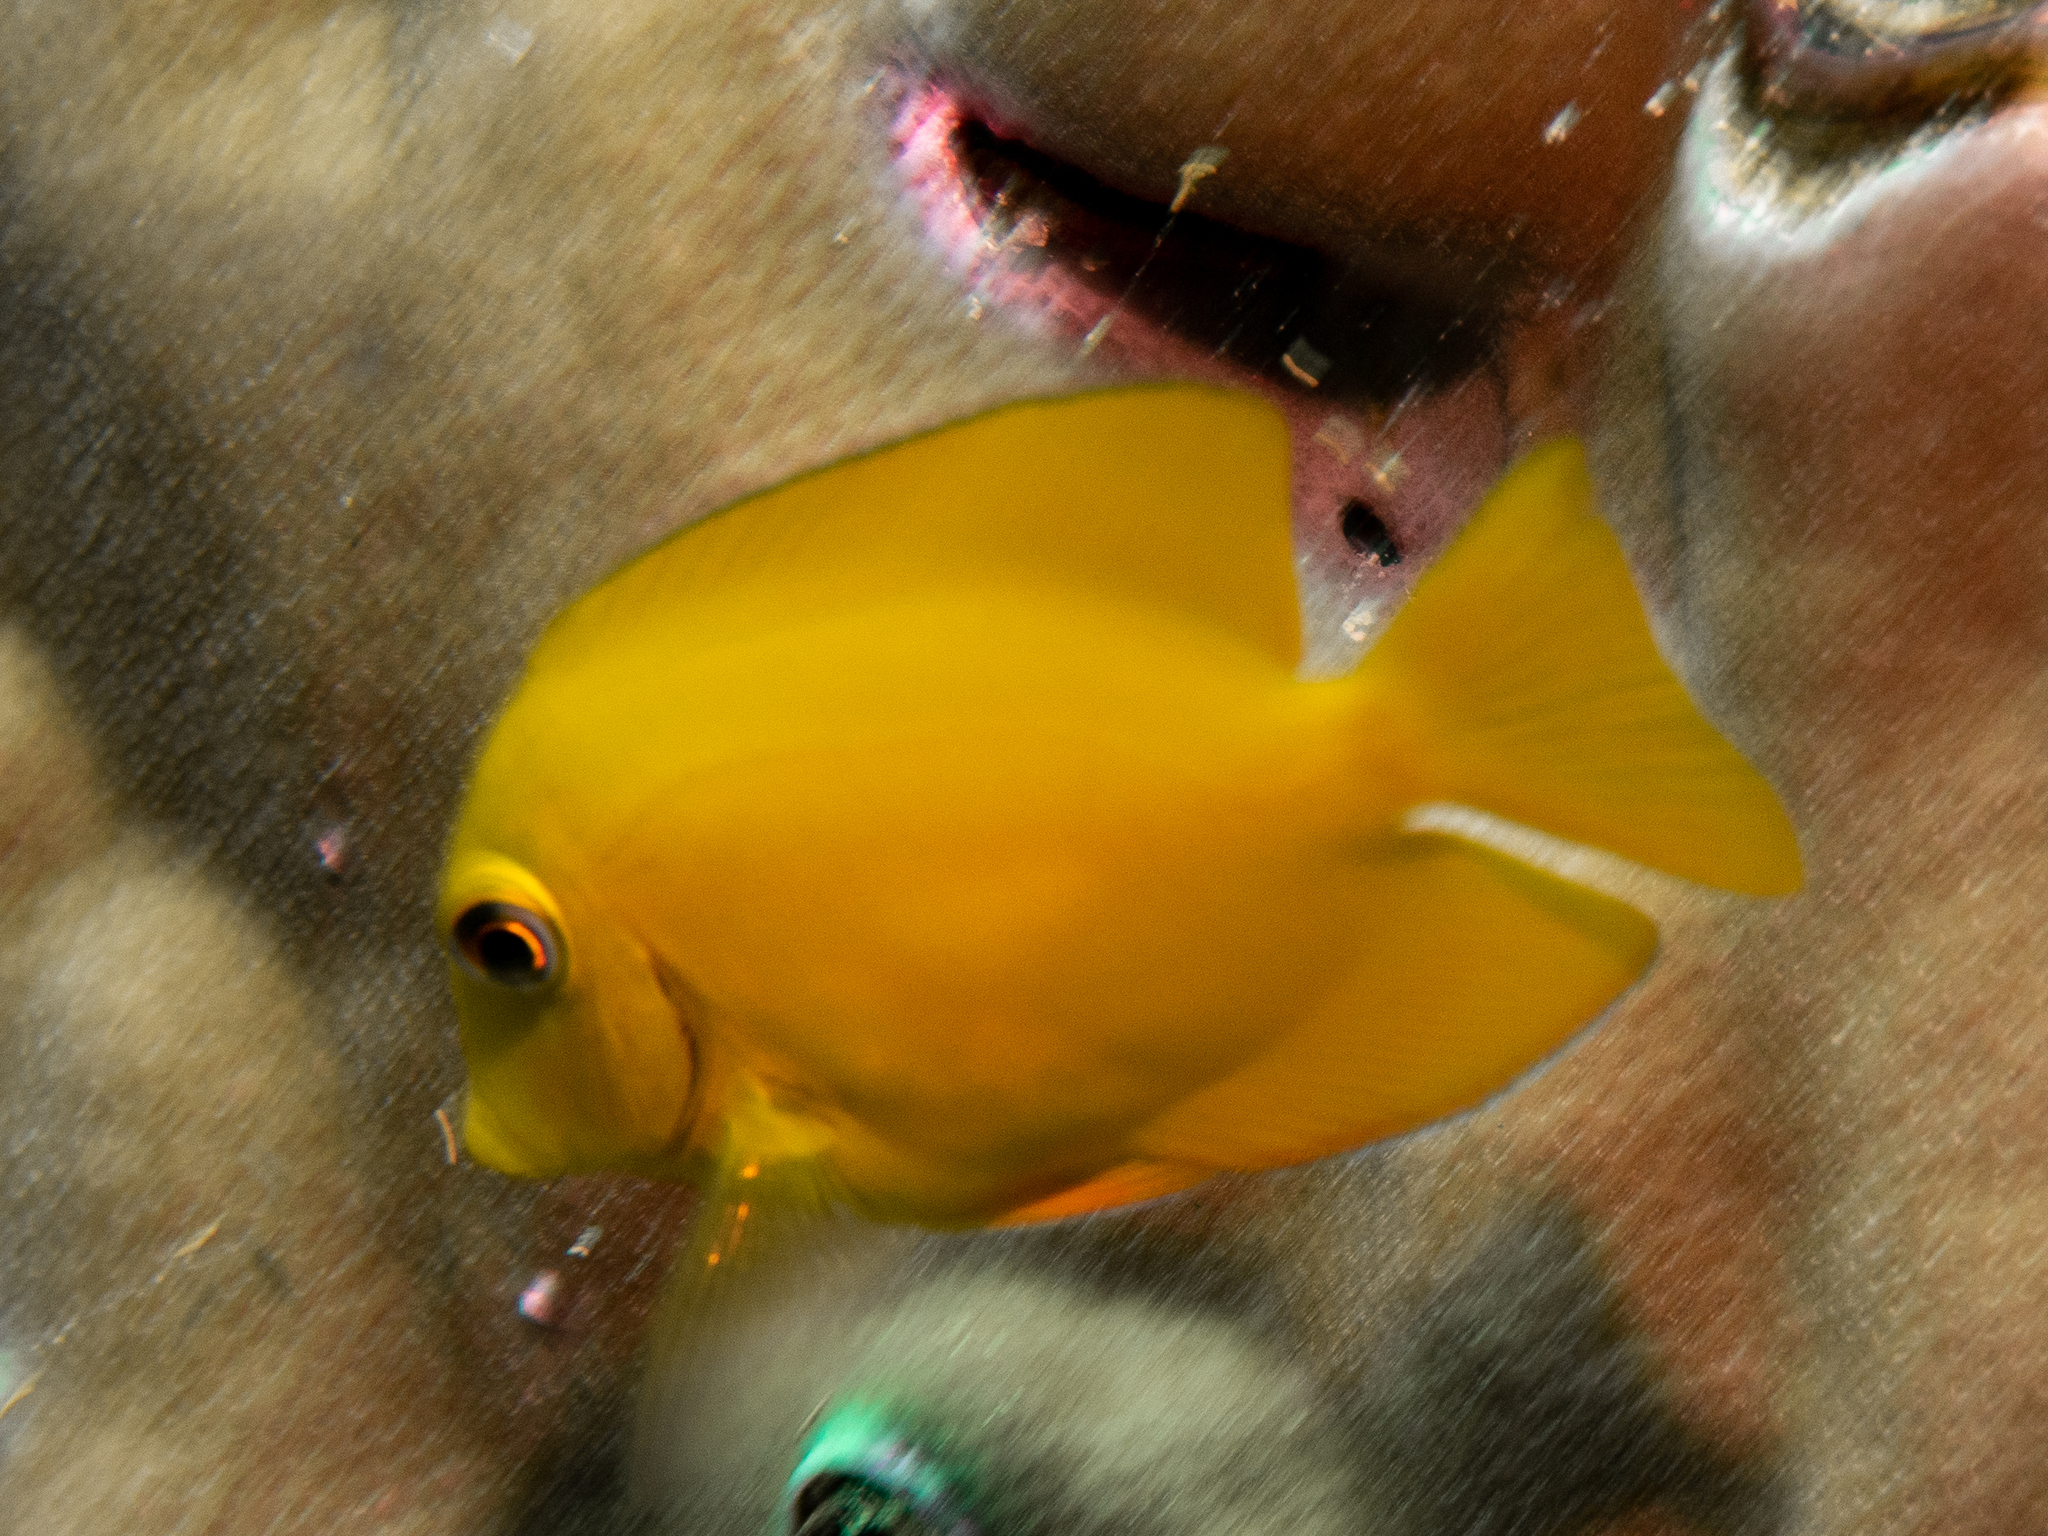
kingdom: Animalia
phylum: Chordata
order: Perciformes
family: Acanthuridae
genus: Ctenochaetus
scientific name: Ctenochaetus truncatus
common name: Indian gold-ring bristle-tooth
